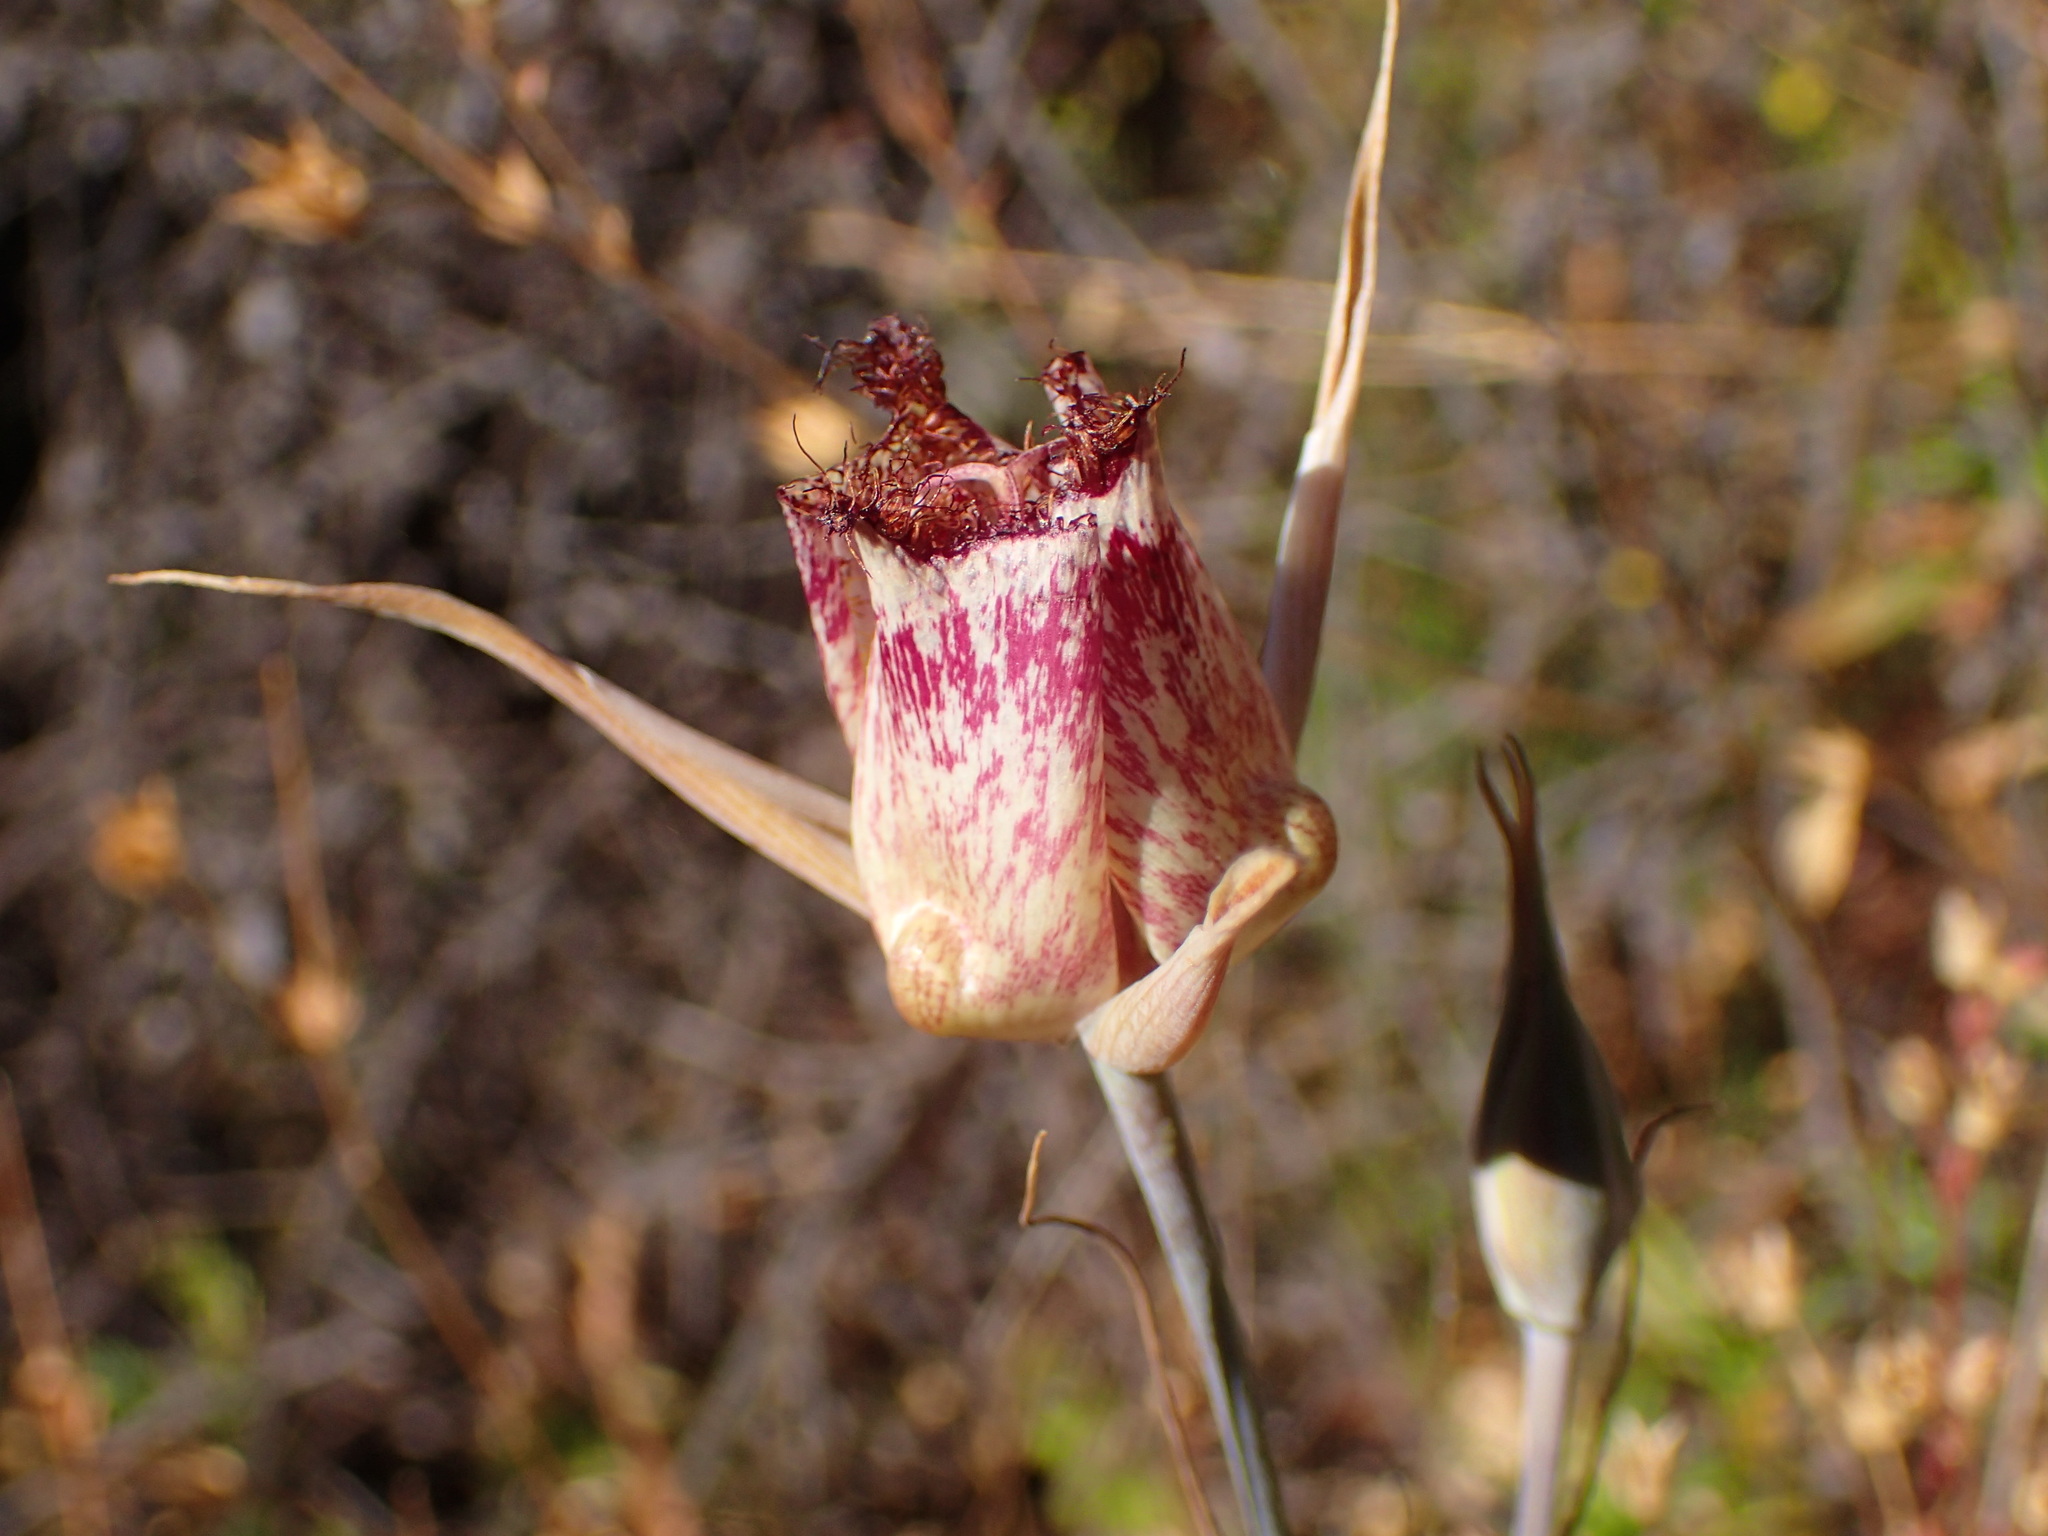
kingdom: Plantae
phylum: Tracheophyta
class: Liliopsida
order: Liliales
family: Liliaceae
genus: Calochortus
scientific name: Calochortus fimbriatus
